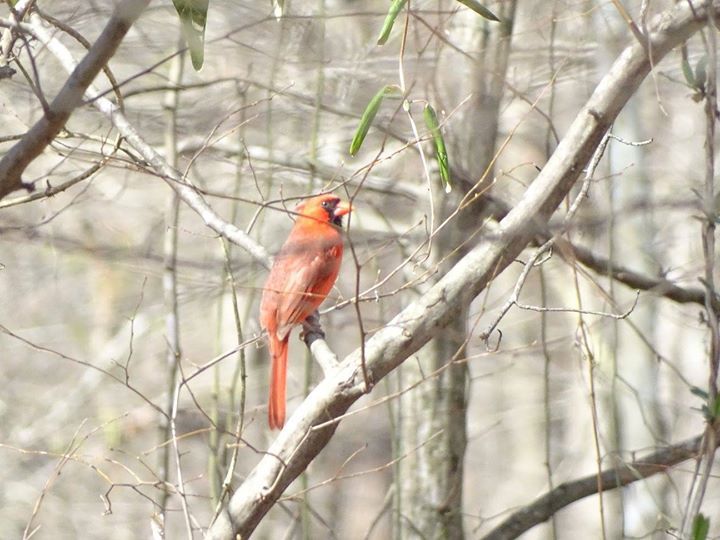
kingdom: Animalia
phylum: Chordata
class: Aves
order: Passeriformes
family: Cardinalidae
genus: Cardinalis
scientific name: Cardinalis cardinalis
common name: Northern cardinal
